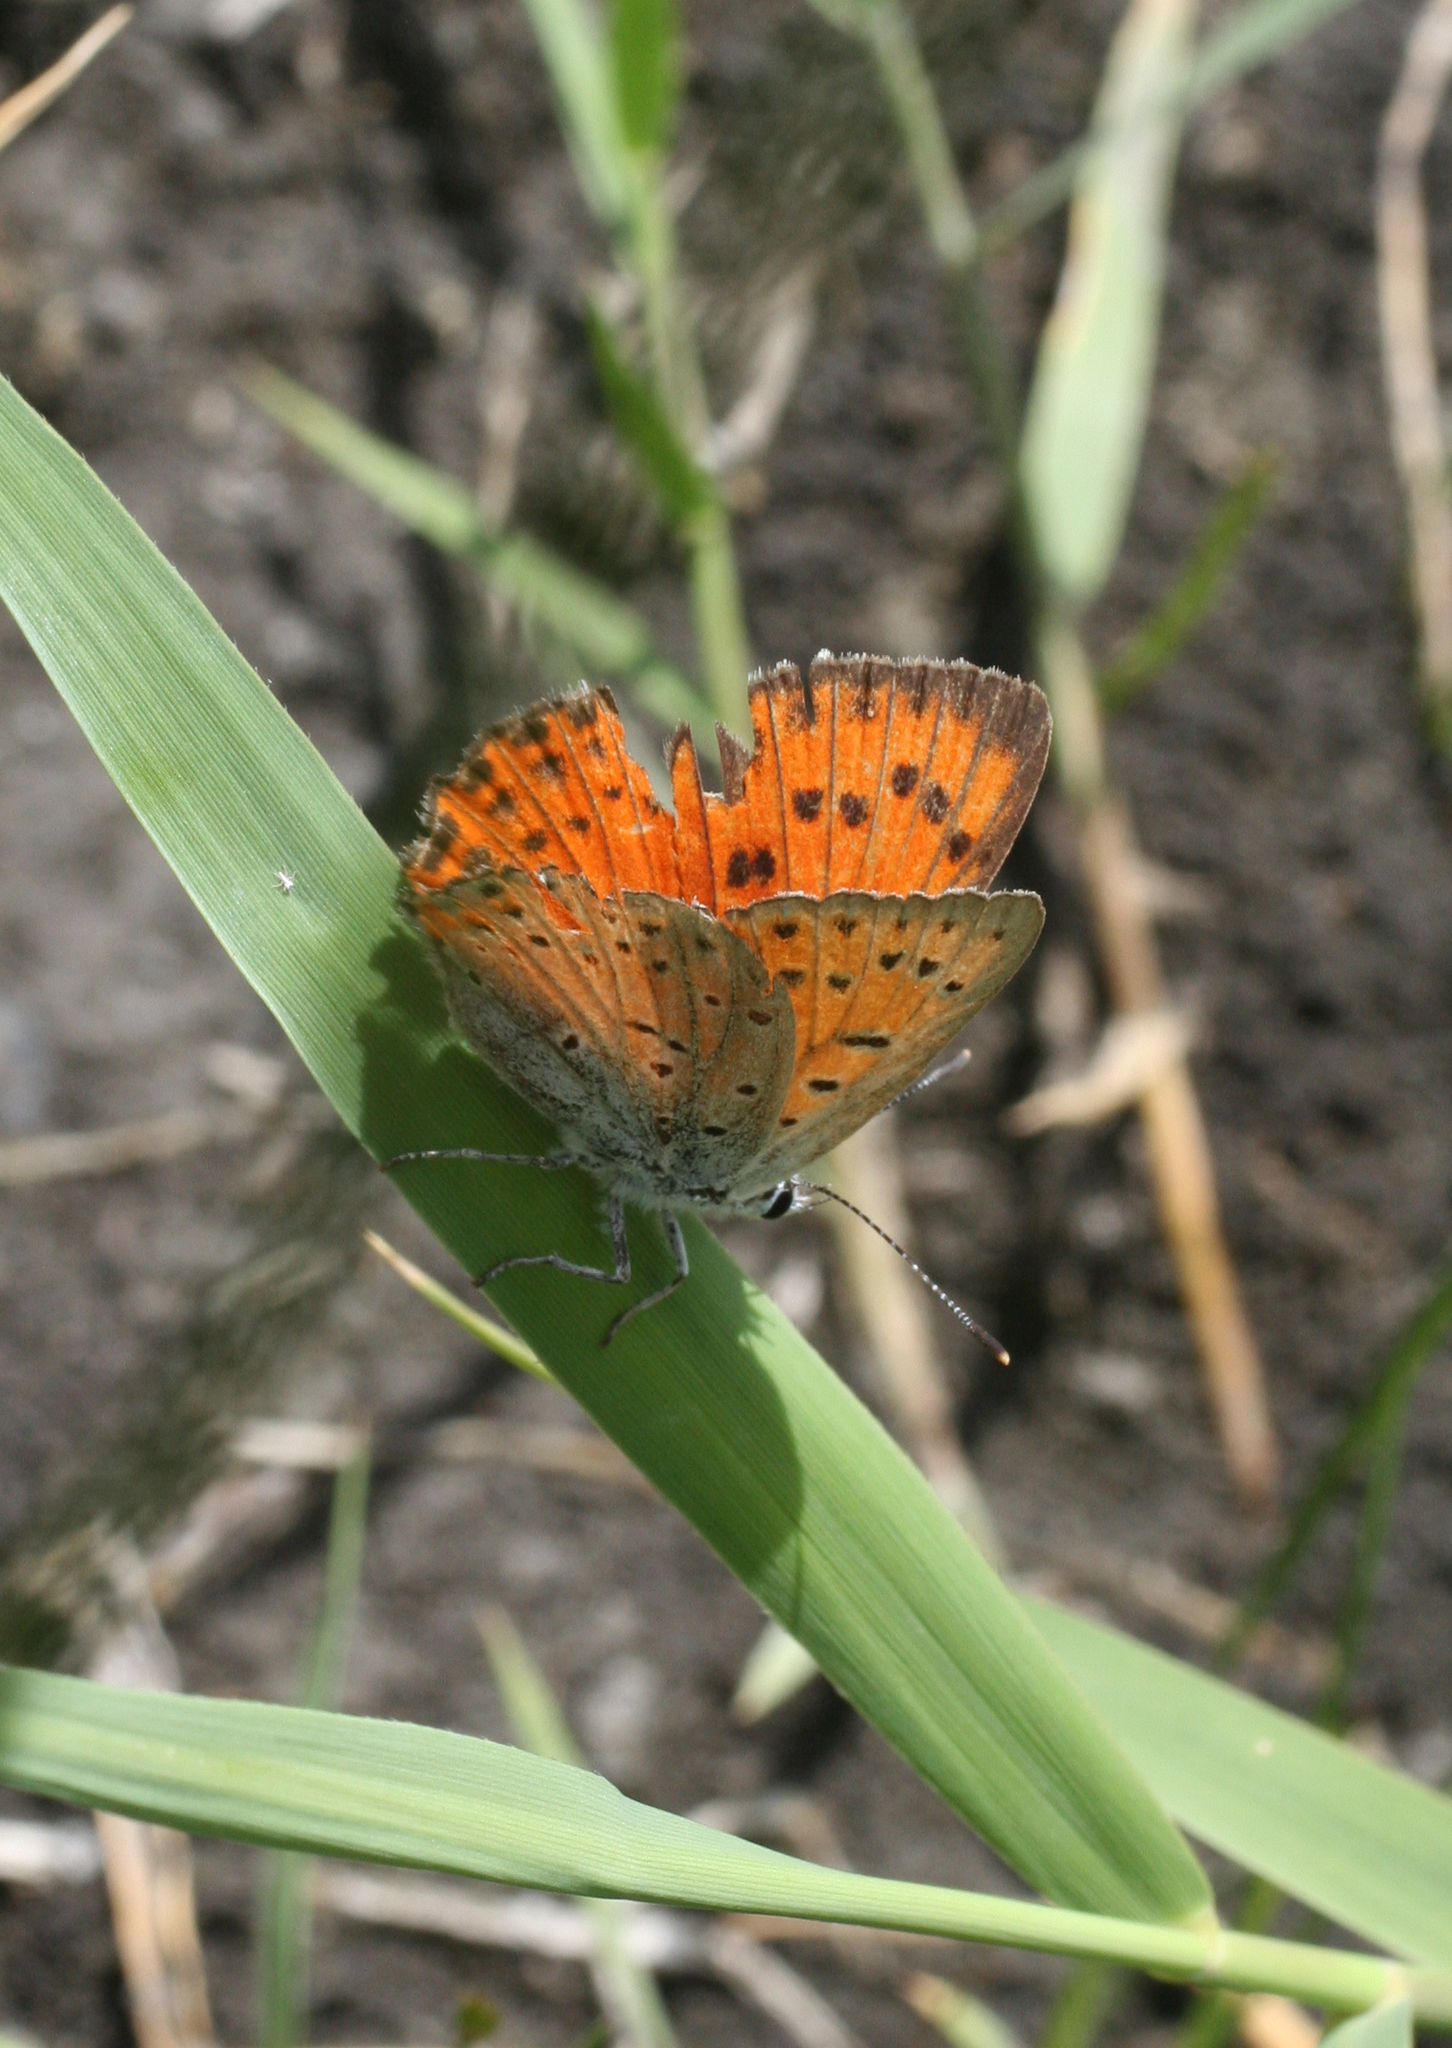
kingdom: Animalia
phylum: Arthropoda
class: Insecta
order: Lepidoptera
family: Lycaenidae
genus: Lycaena
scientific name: Lycaena alciphron
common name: Purple-shot copper
